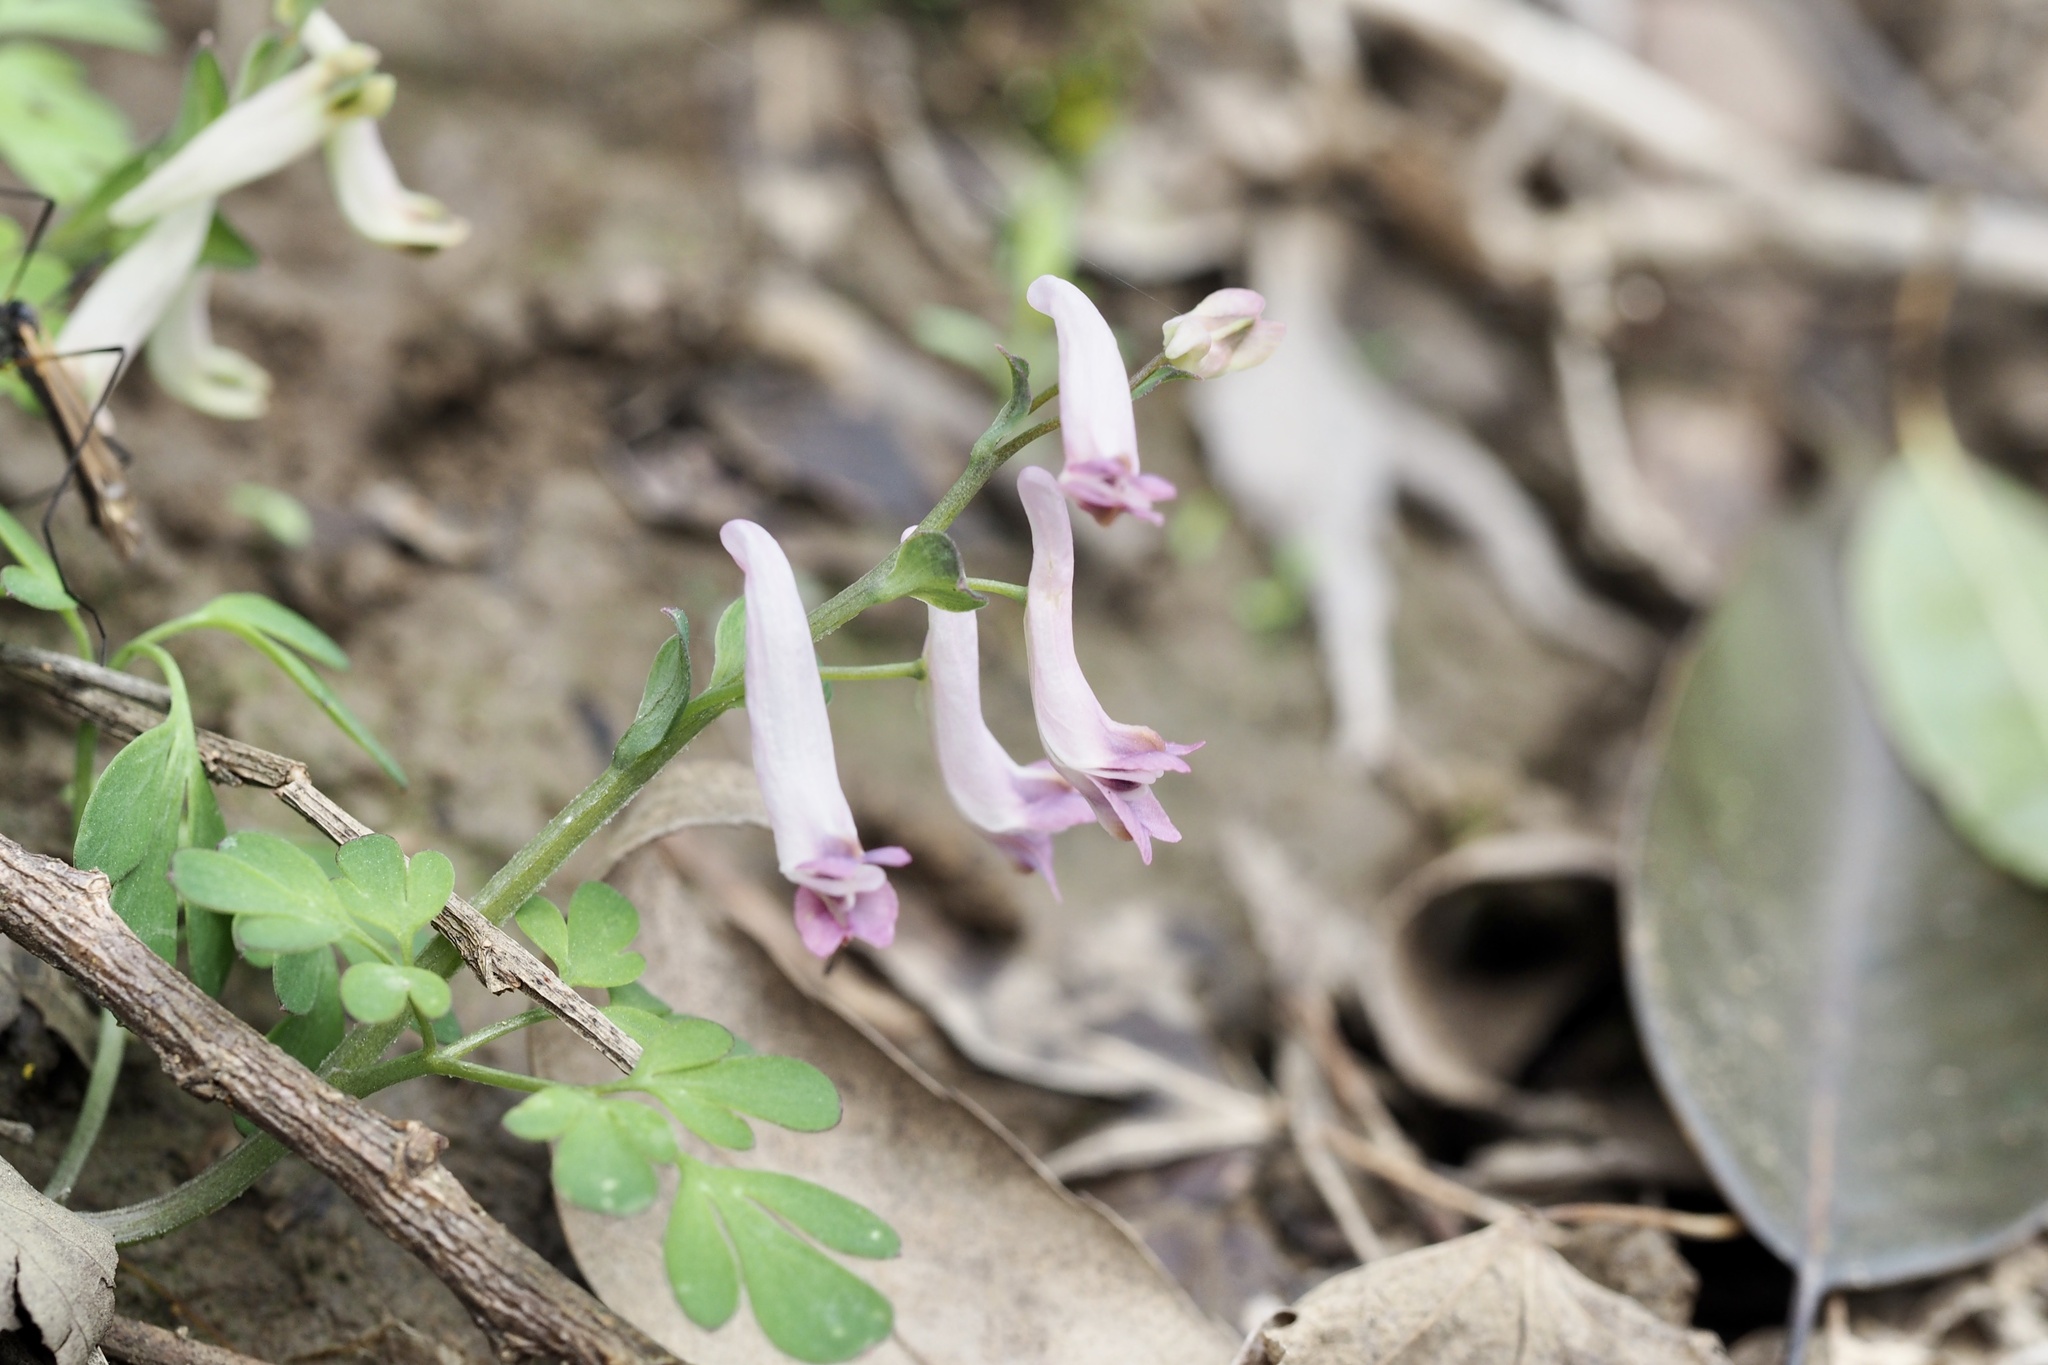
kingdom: Plantae
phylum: Tracheophyta
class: Magnoliopsida
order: Ranunculales
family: Papaveraceae
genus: Corydalis
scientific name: Corydalis decumbens
